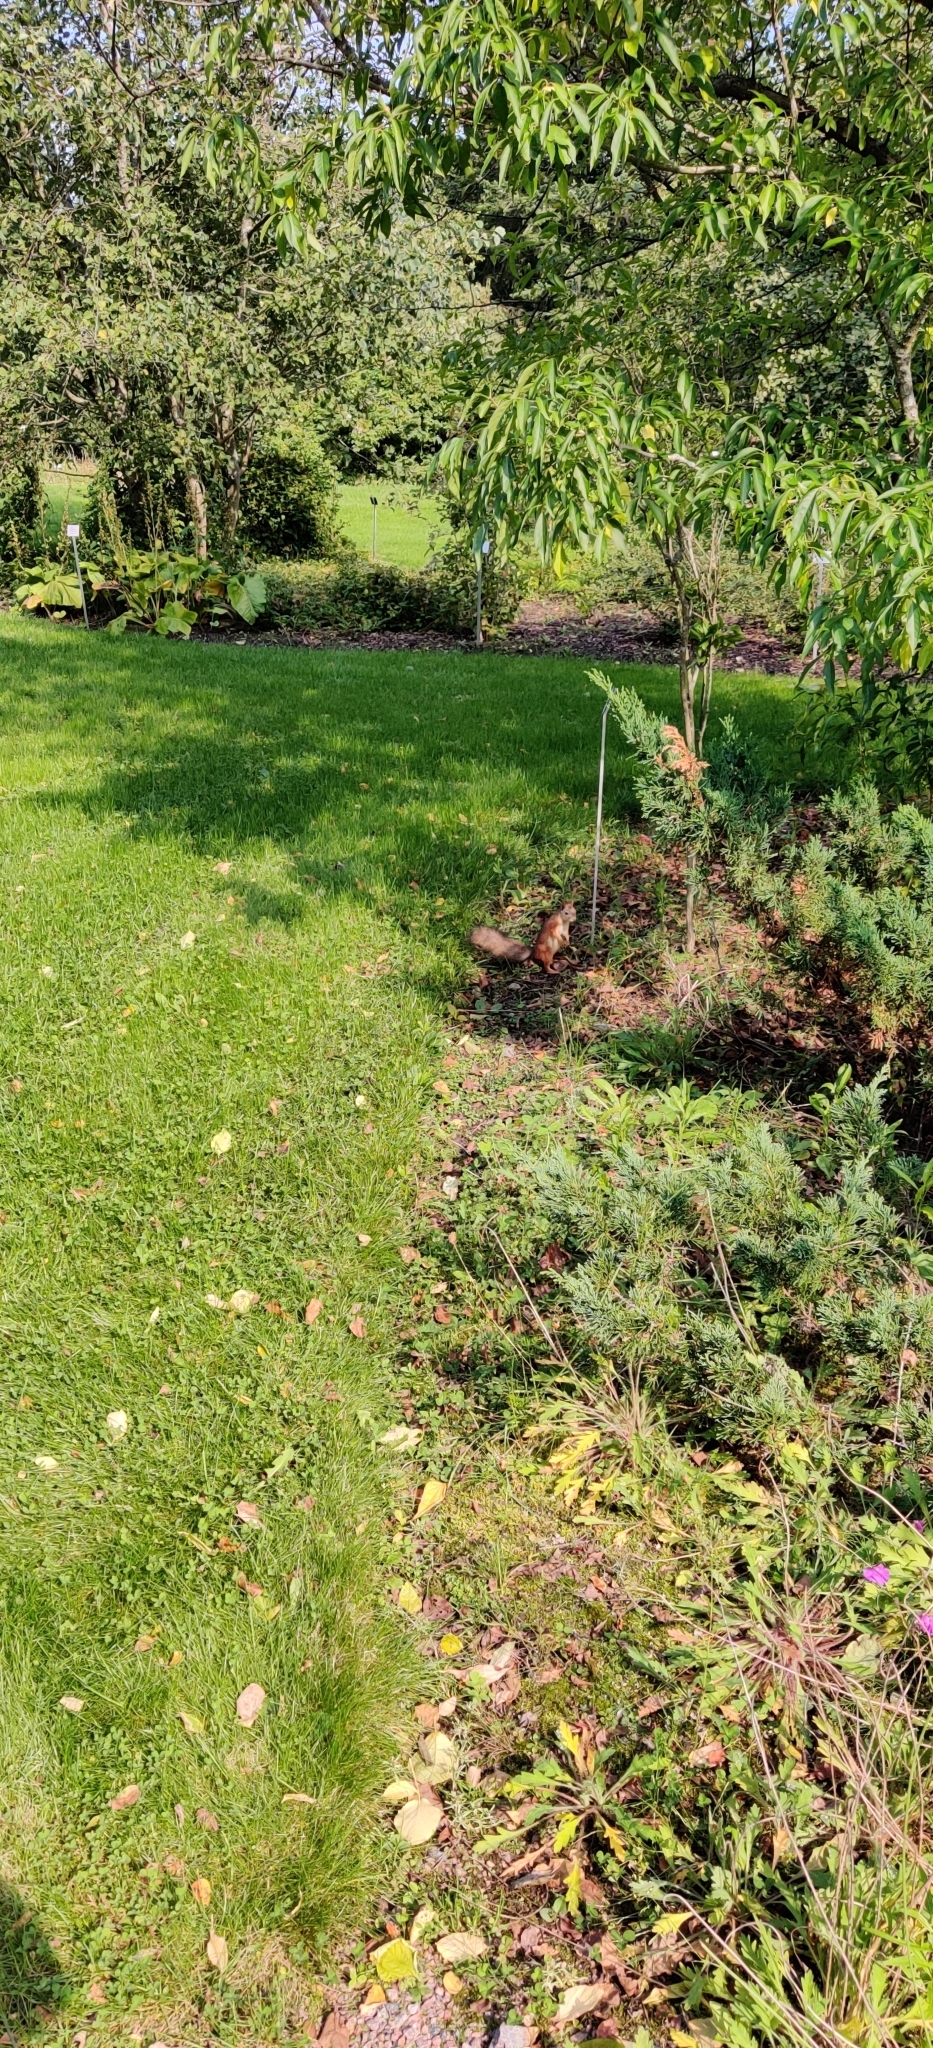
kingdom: Animalia
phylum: Chordata
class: Mammalia
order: Rodentia
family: Sciuridae
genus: Sciurus
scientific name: Sciurus vulgaris
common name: Eurasian red squirrel
